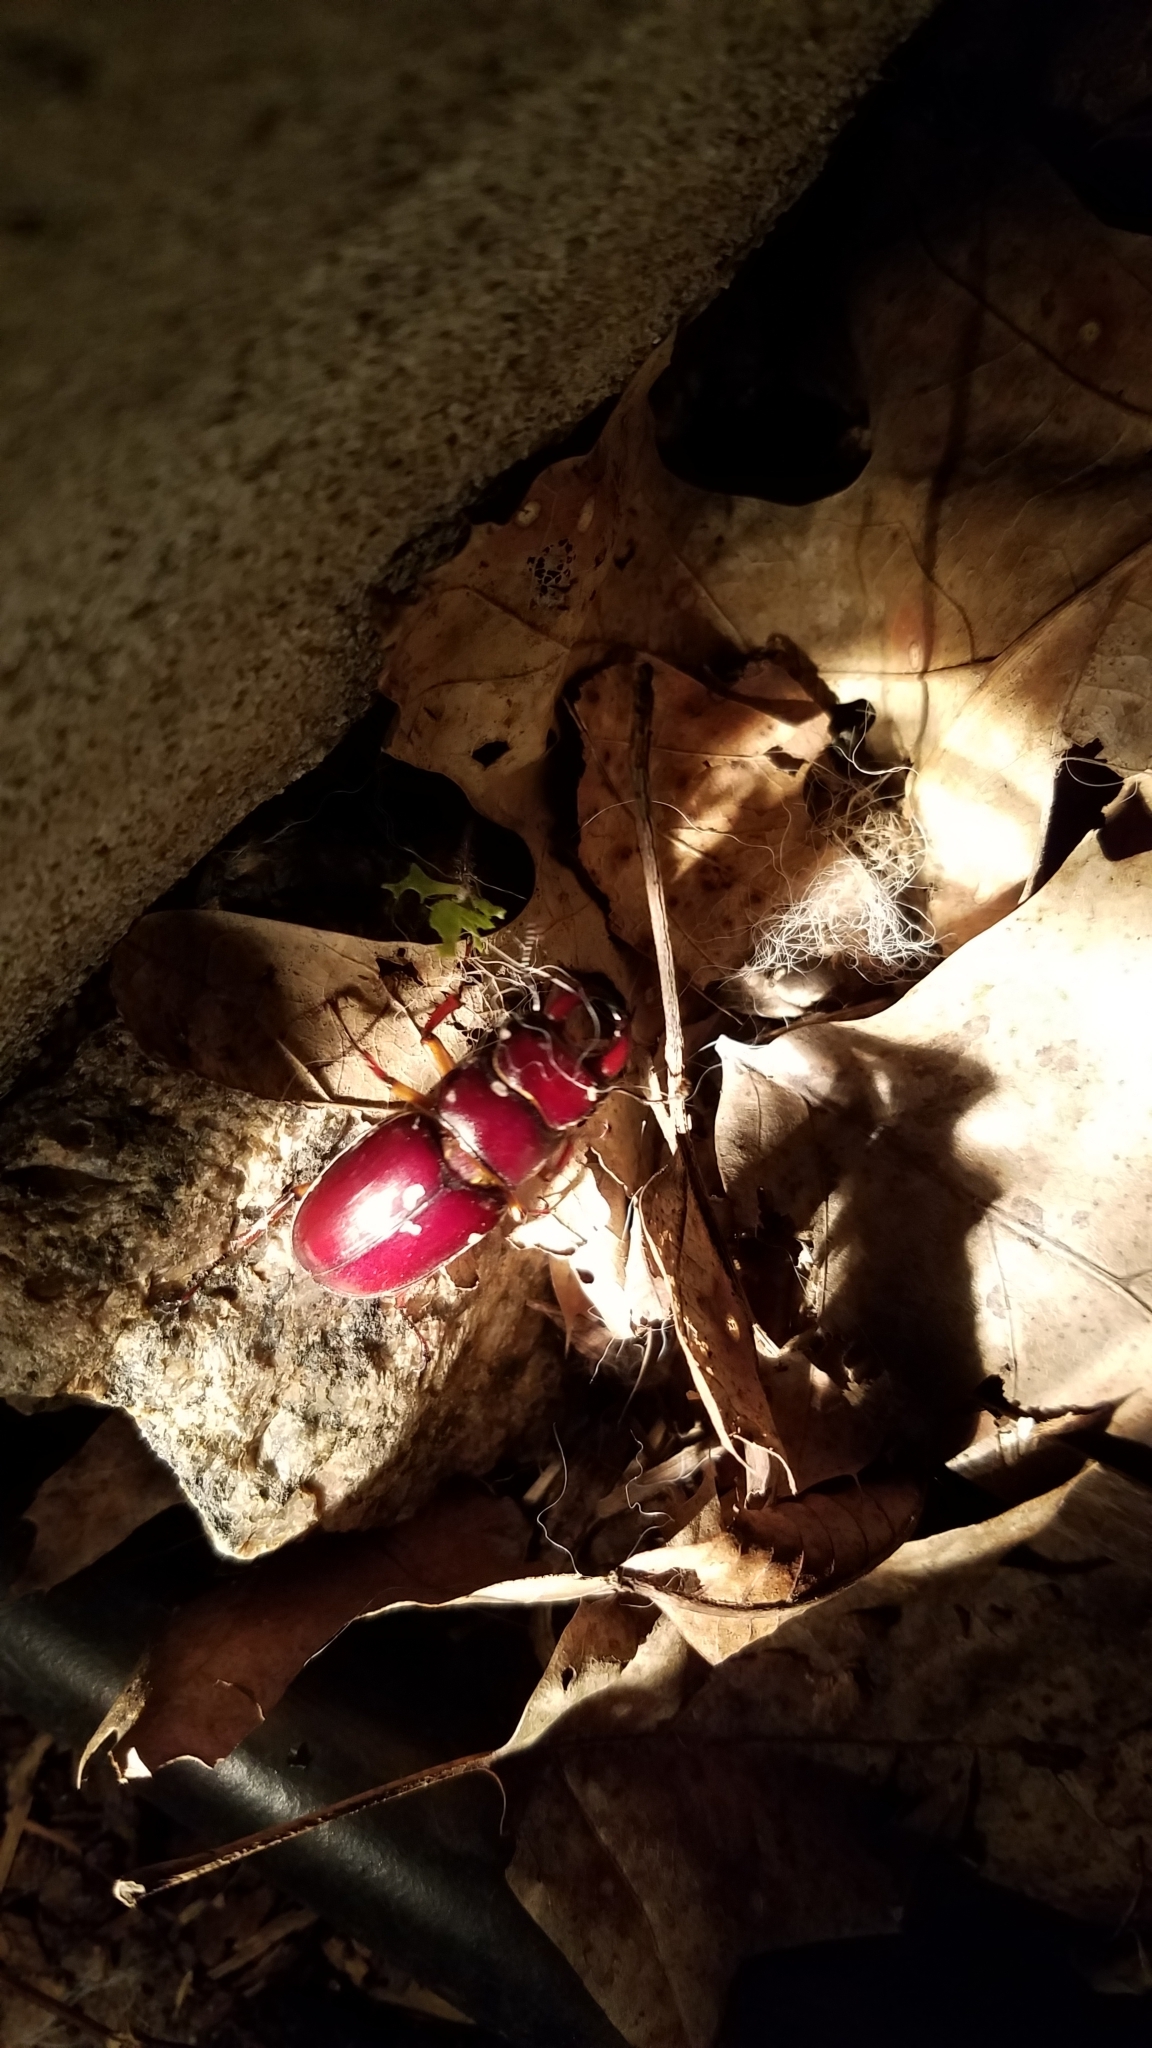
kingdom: Animalia
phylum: Arthropoda
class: Insecta
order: Coleoptera
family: Lucanidae
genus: Lucanus
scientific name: Lucanus capreolus
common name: Stag beetle
